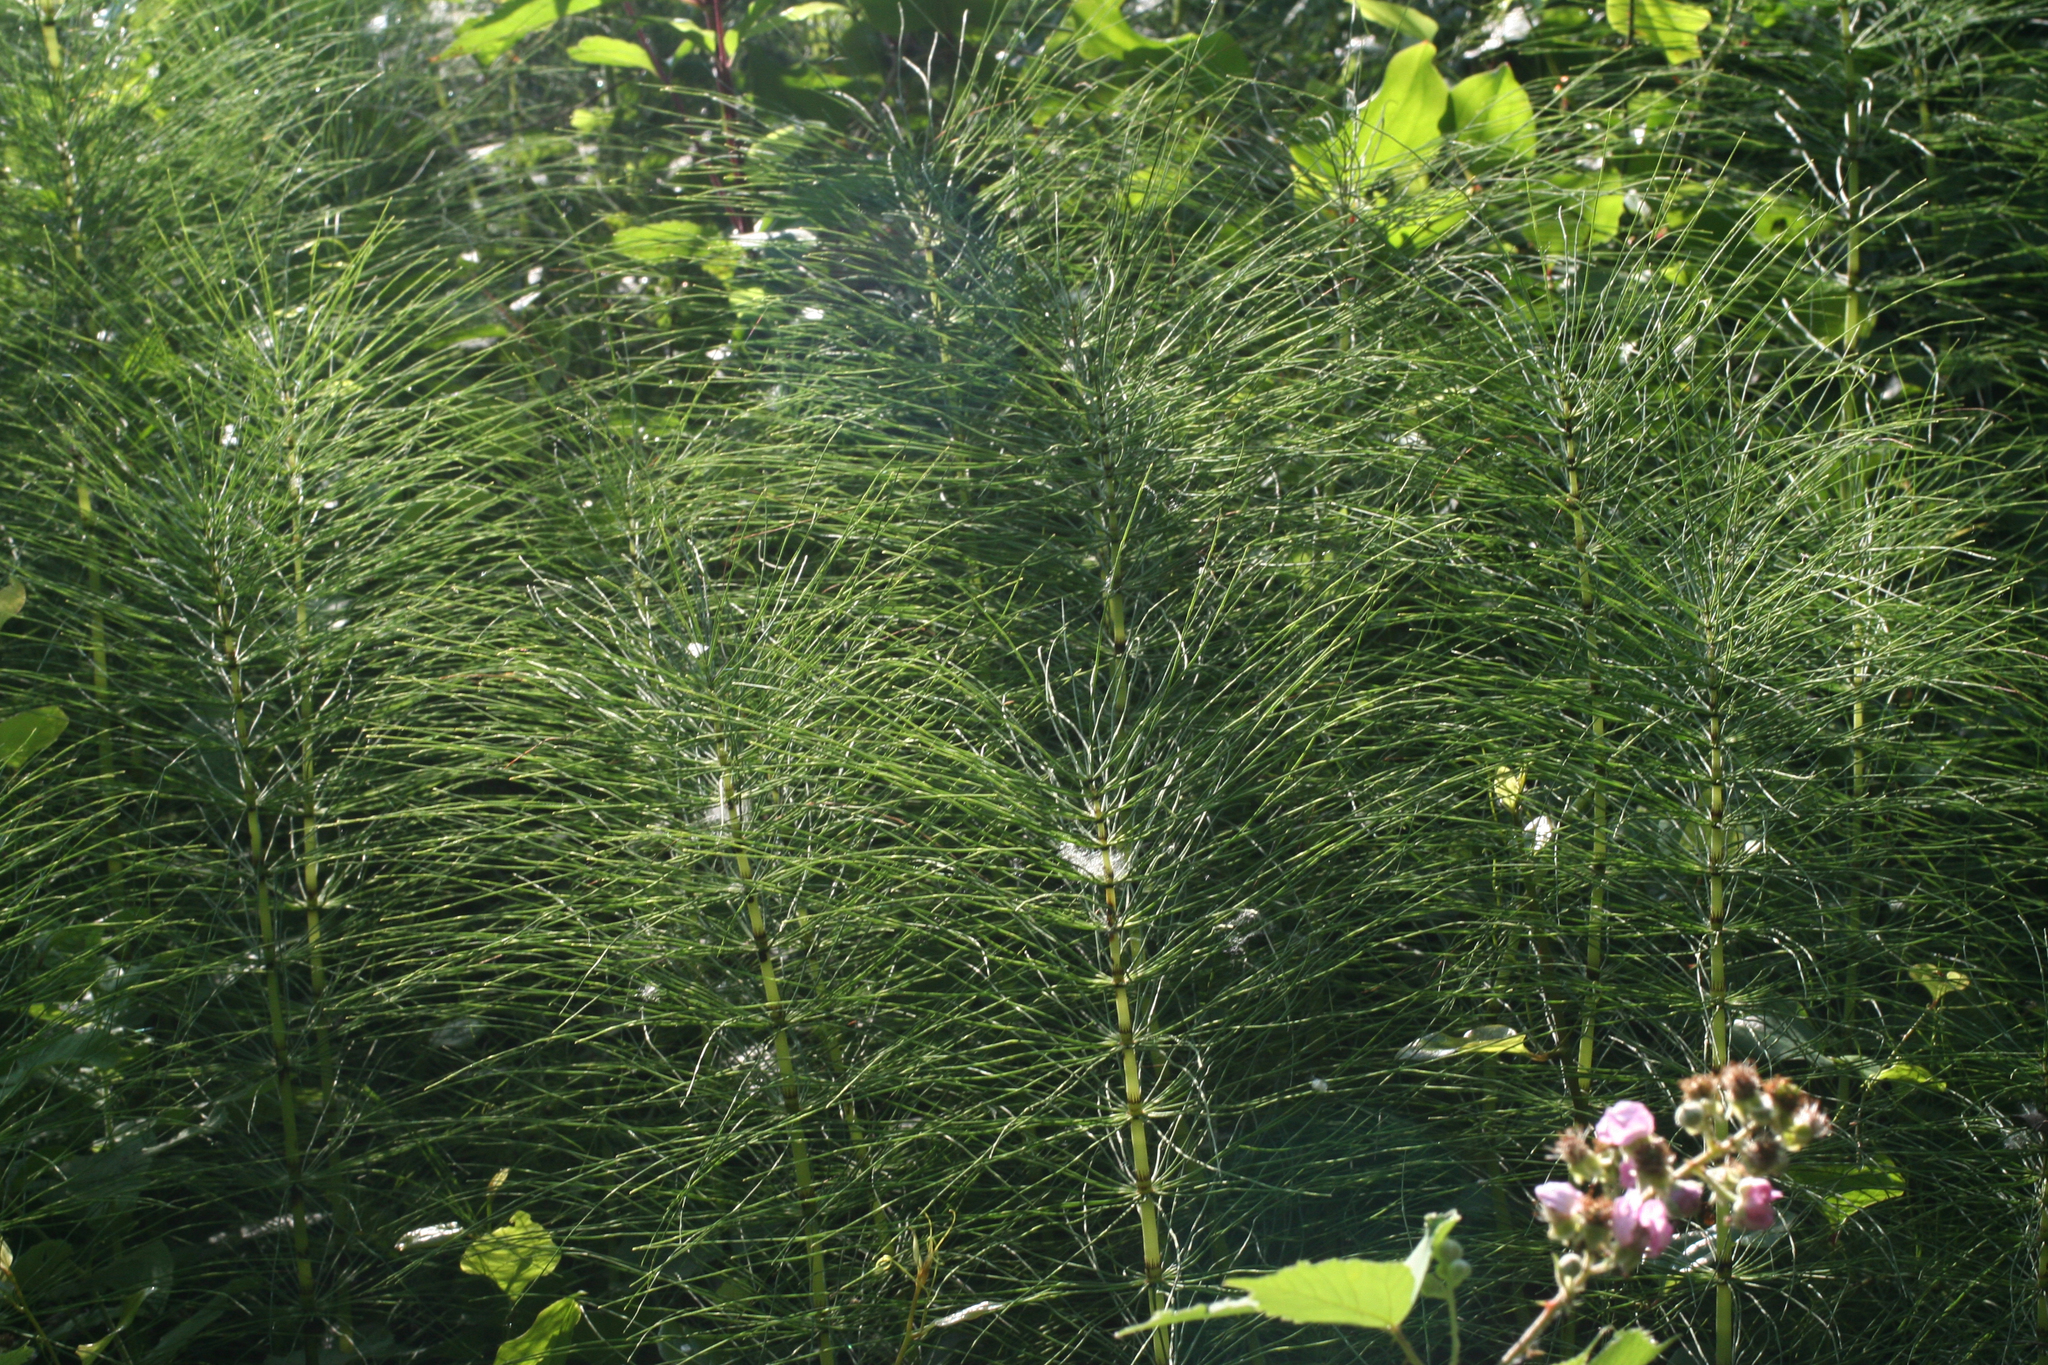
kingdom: Plantae
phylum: Tracheophyta
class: Polypodiopsida
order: Equisetales
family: Equisetaceae
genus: Equisetum
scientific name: Equisetum telmateia
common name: Great horsetail
